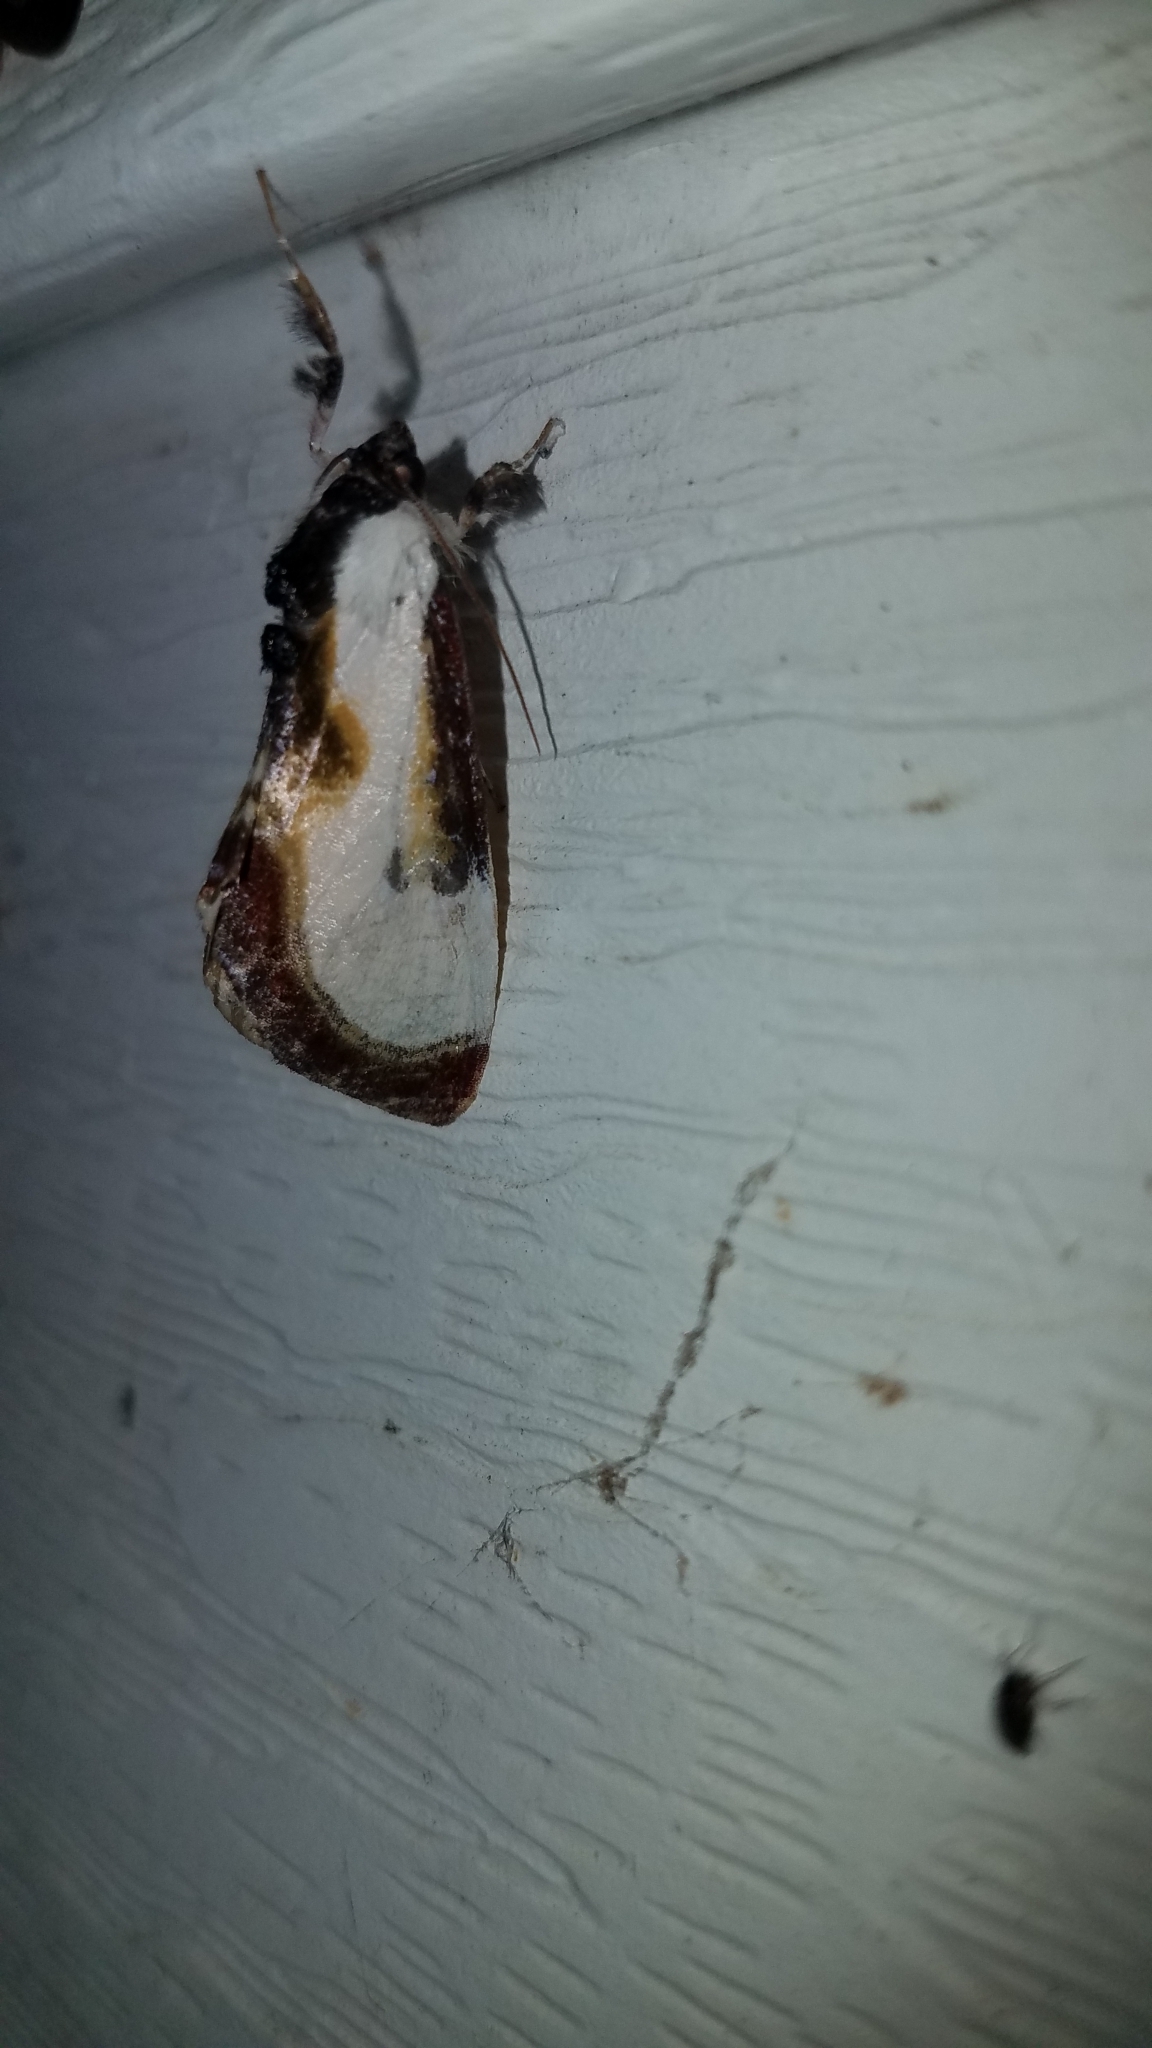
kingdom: Animalia
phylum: Arthropoda
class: Insecta
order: Lepidoptera
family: Noctuidae
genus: Eudryas
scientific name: Eudryas grata
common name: Beautiful wood-nymph
